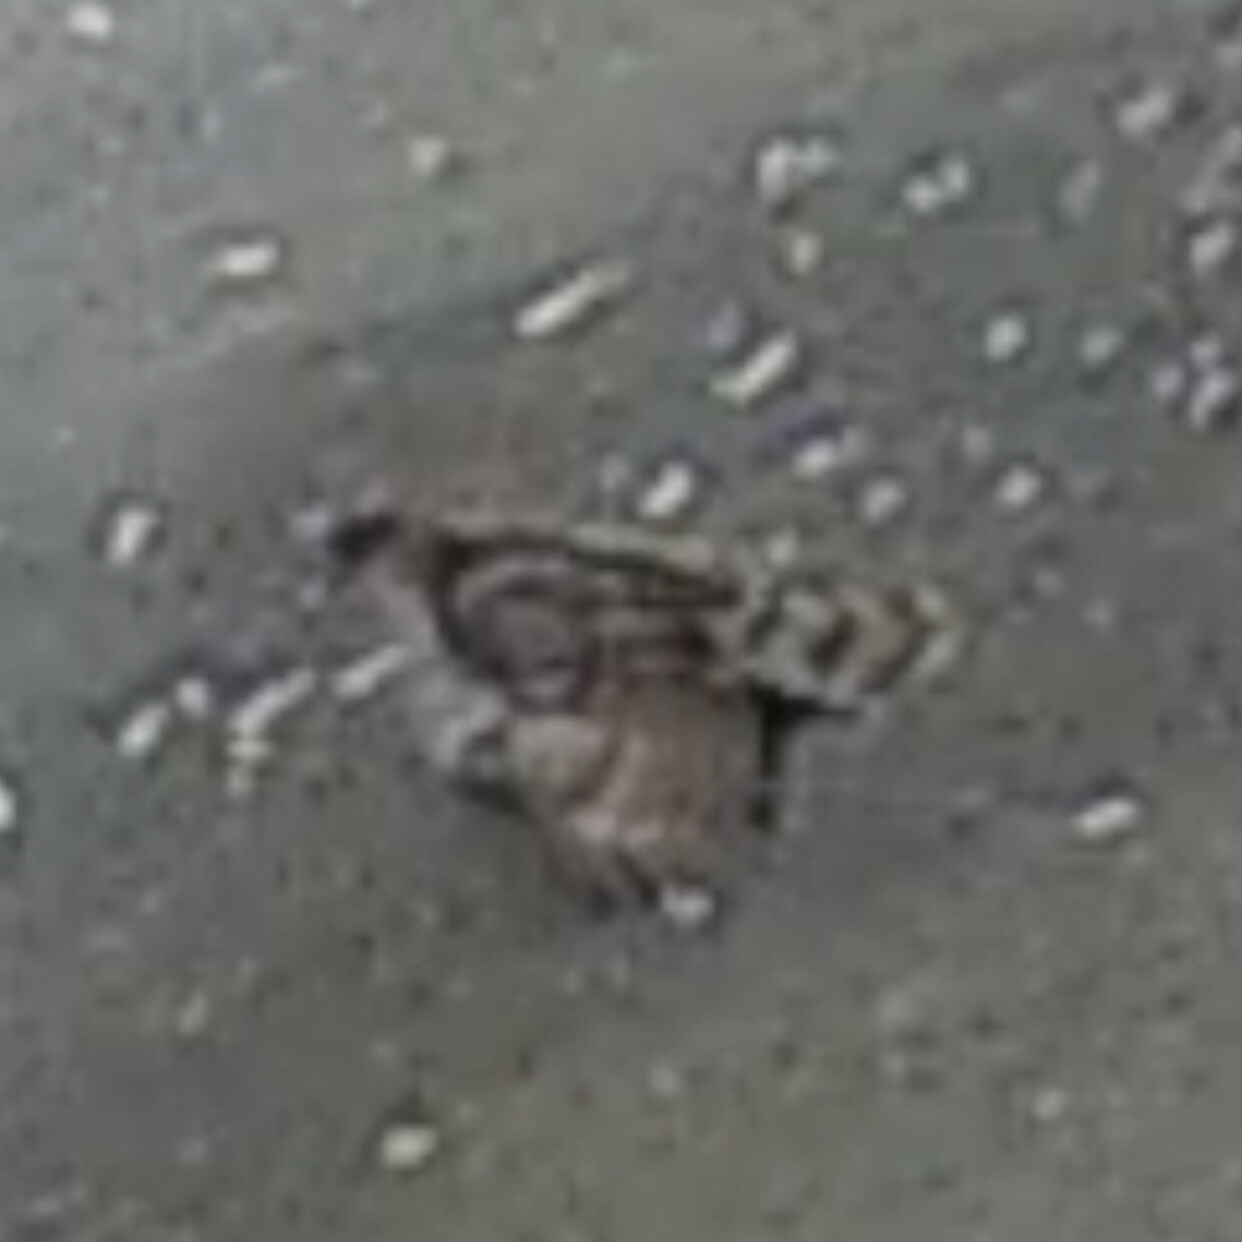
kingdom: Animalia
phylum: Chordata
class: Aves
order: Accipitriformes
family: Accipitridae
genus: Accipiter
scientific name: Accipiter cooperii
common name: Cooper's hawk
